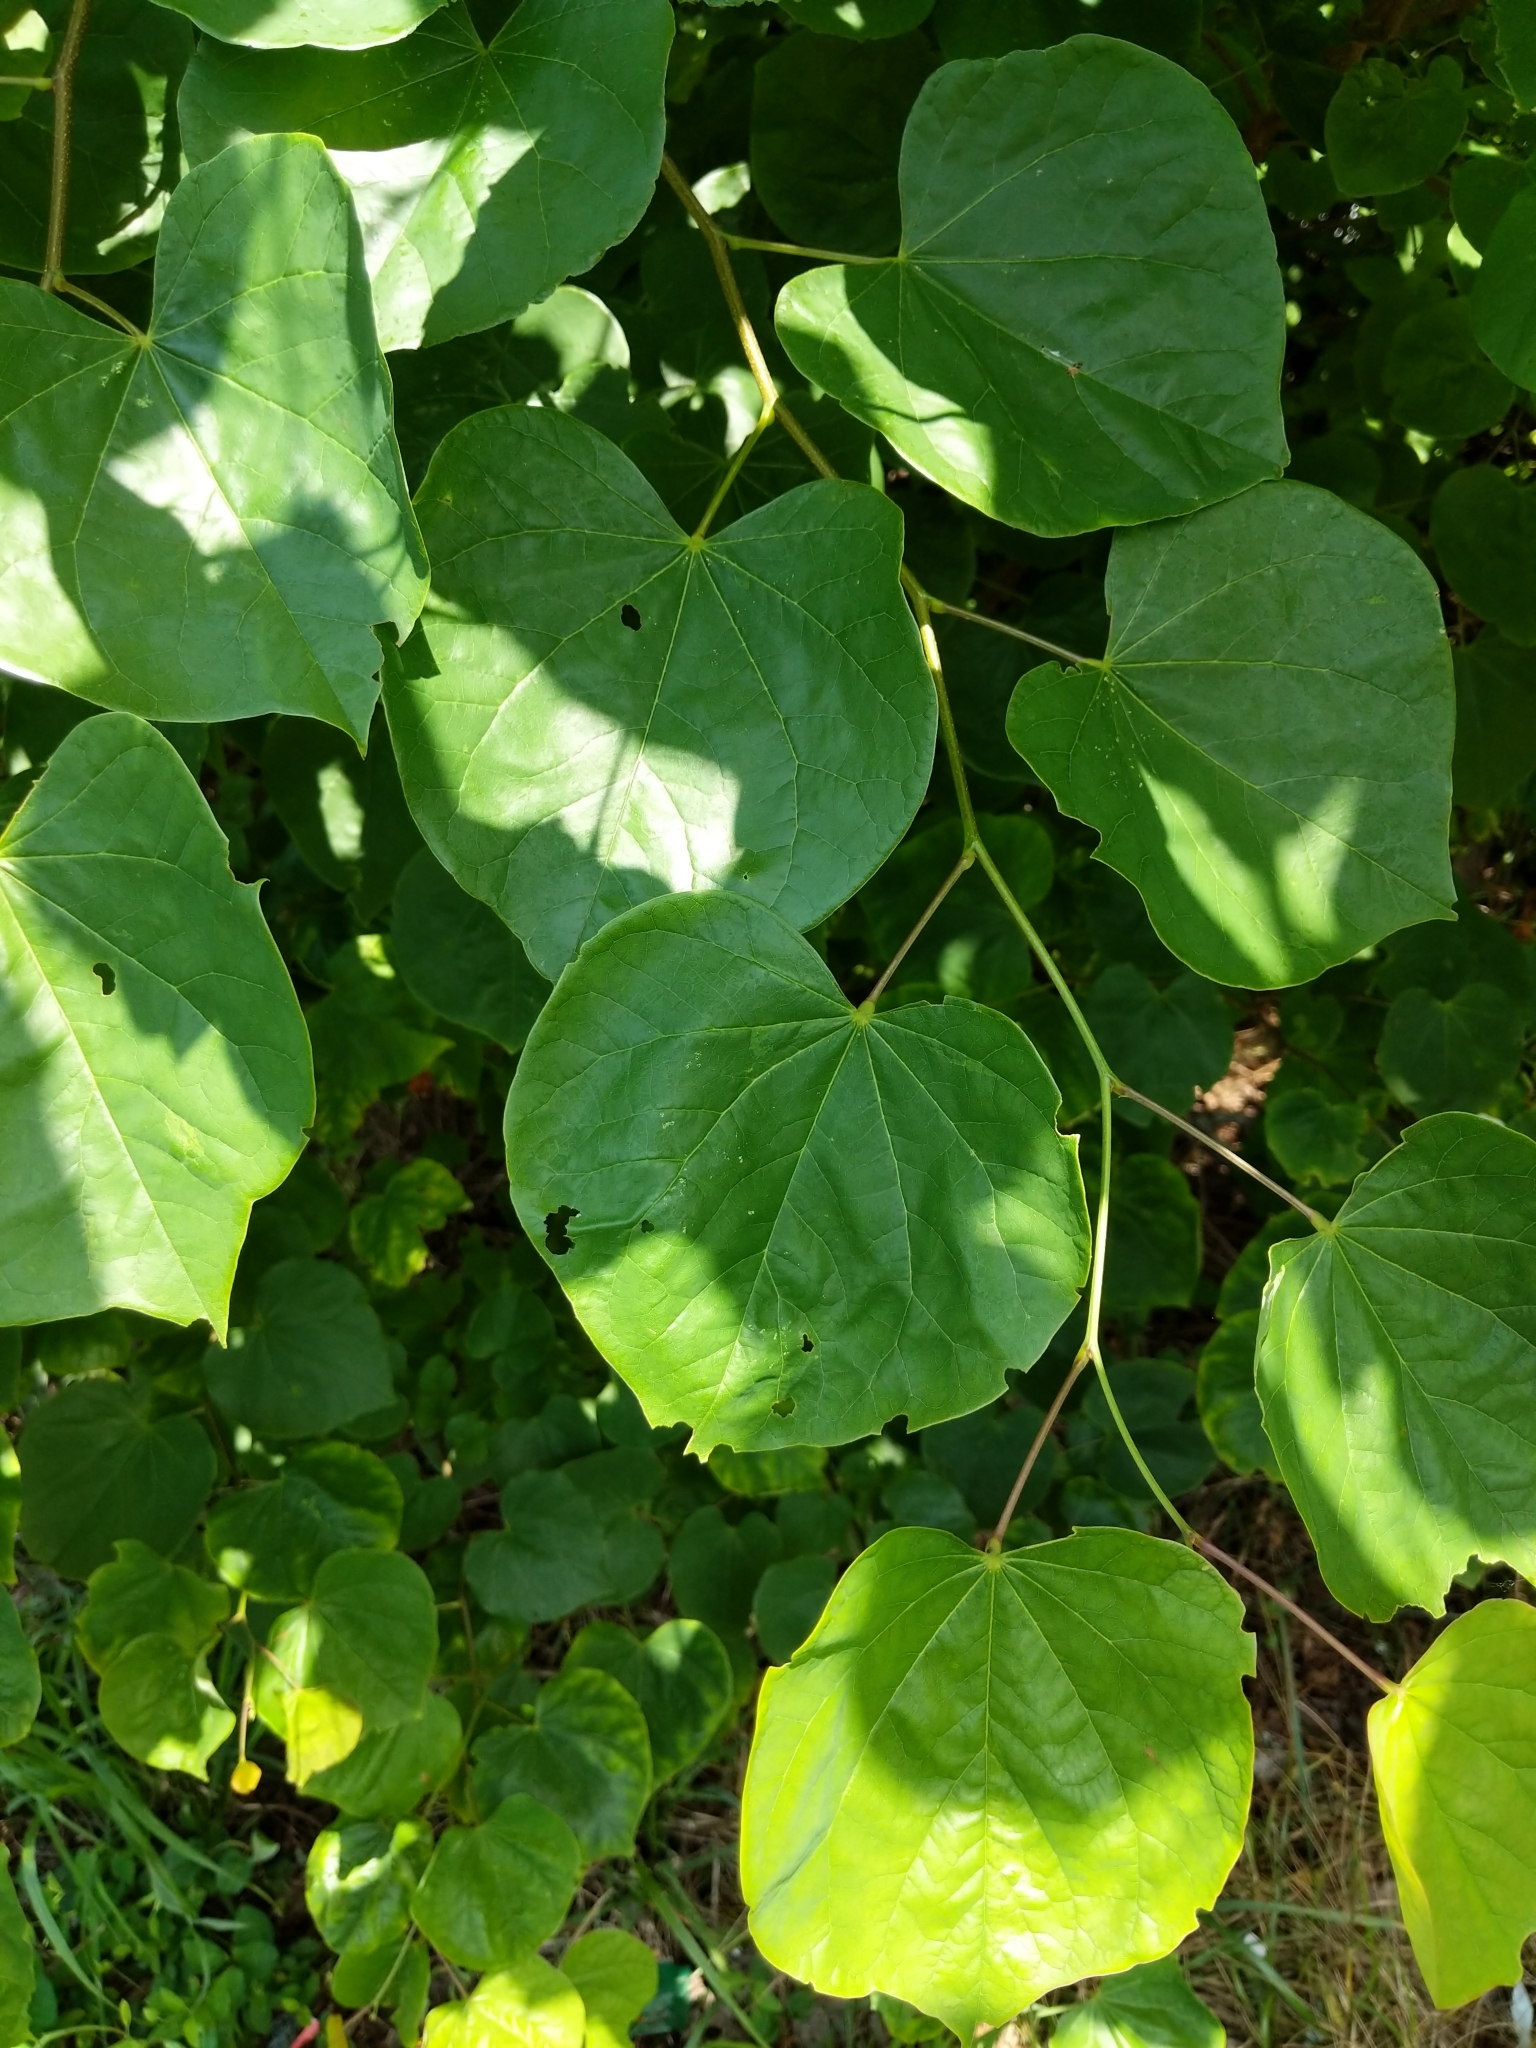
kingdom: Plantae
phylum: Tracheophyta
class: Magnoliopsida
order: Fabales
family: Fabaceae
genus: Cercis
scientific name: Cercis canadensis
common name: Eastern redbud
